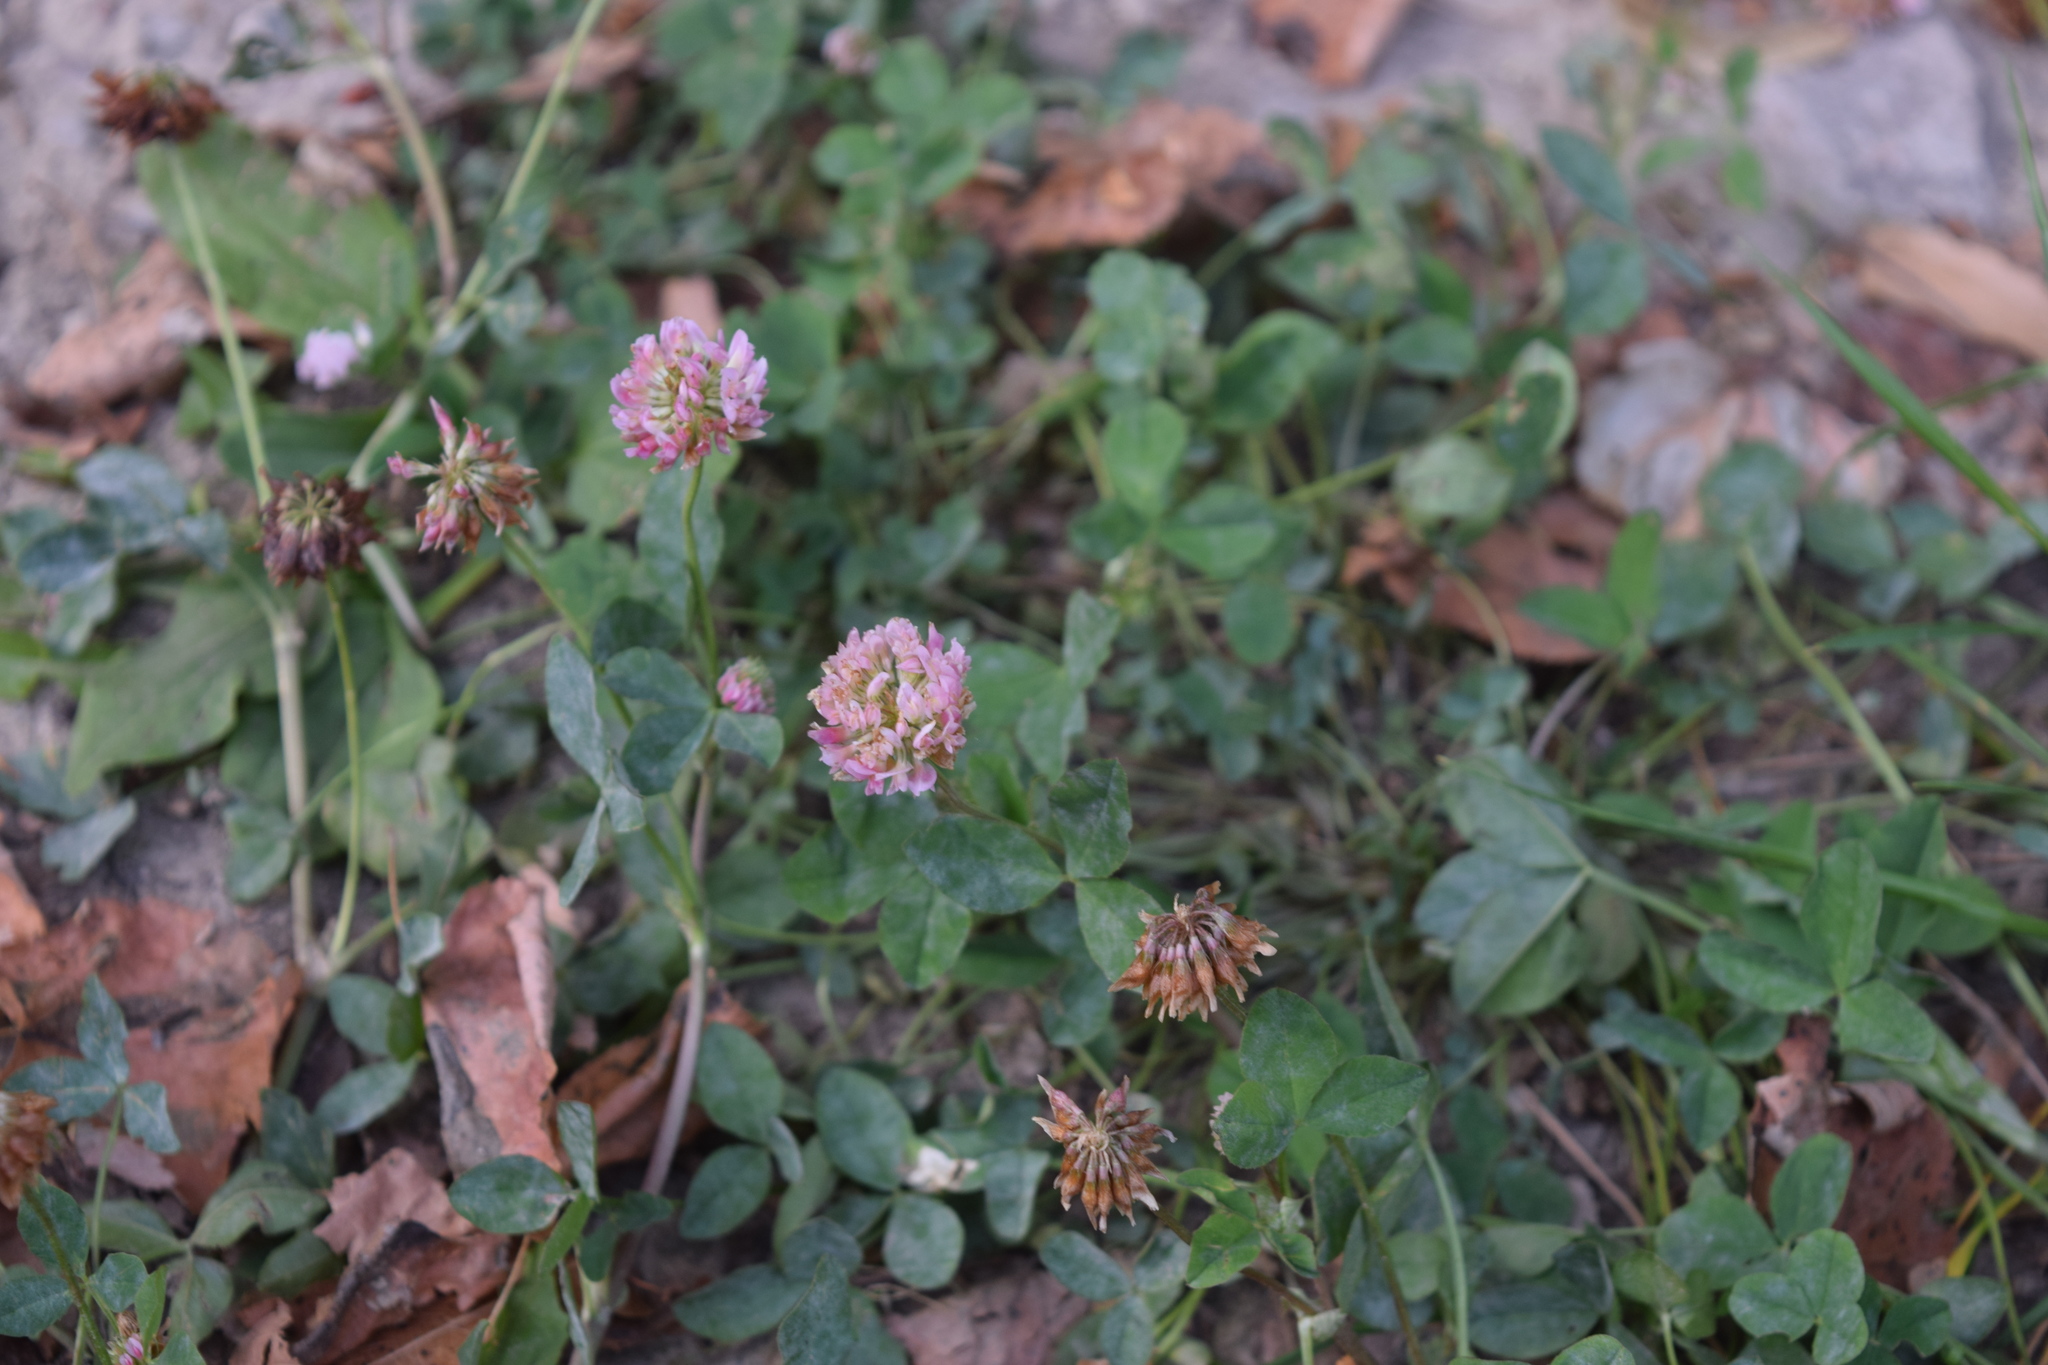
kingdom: Plantae
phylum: Tracheophyta
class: Magnoliopsida
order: Fabales
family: Fabaceae
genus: Trifolium
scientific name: Trifolium hybridum
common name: Alsike clover
